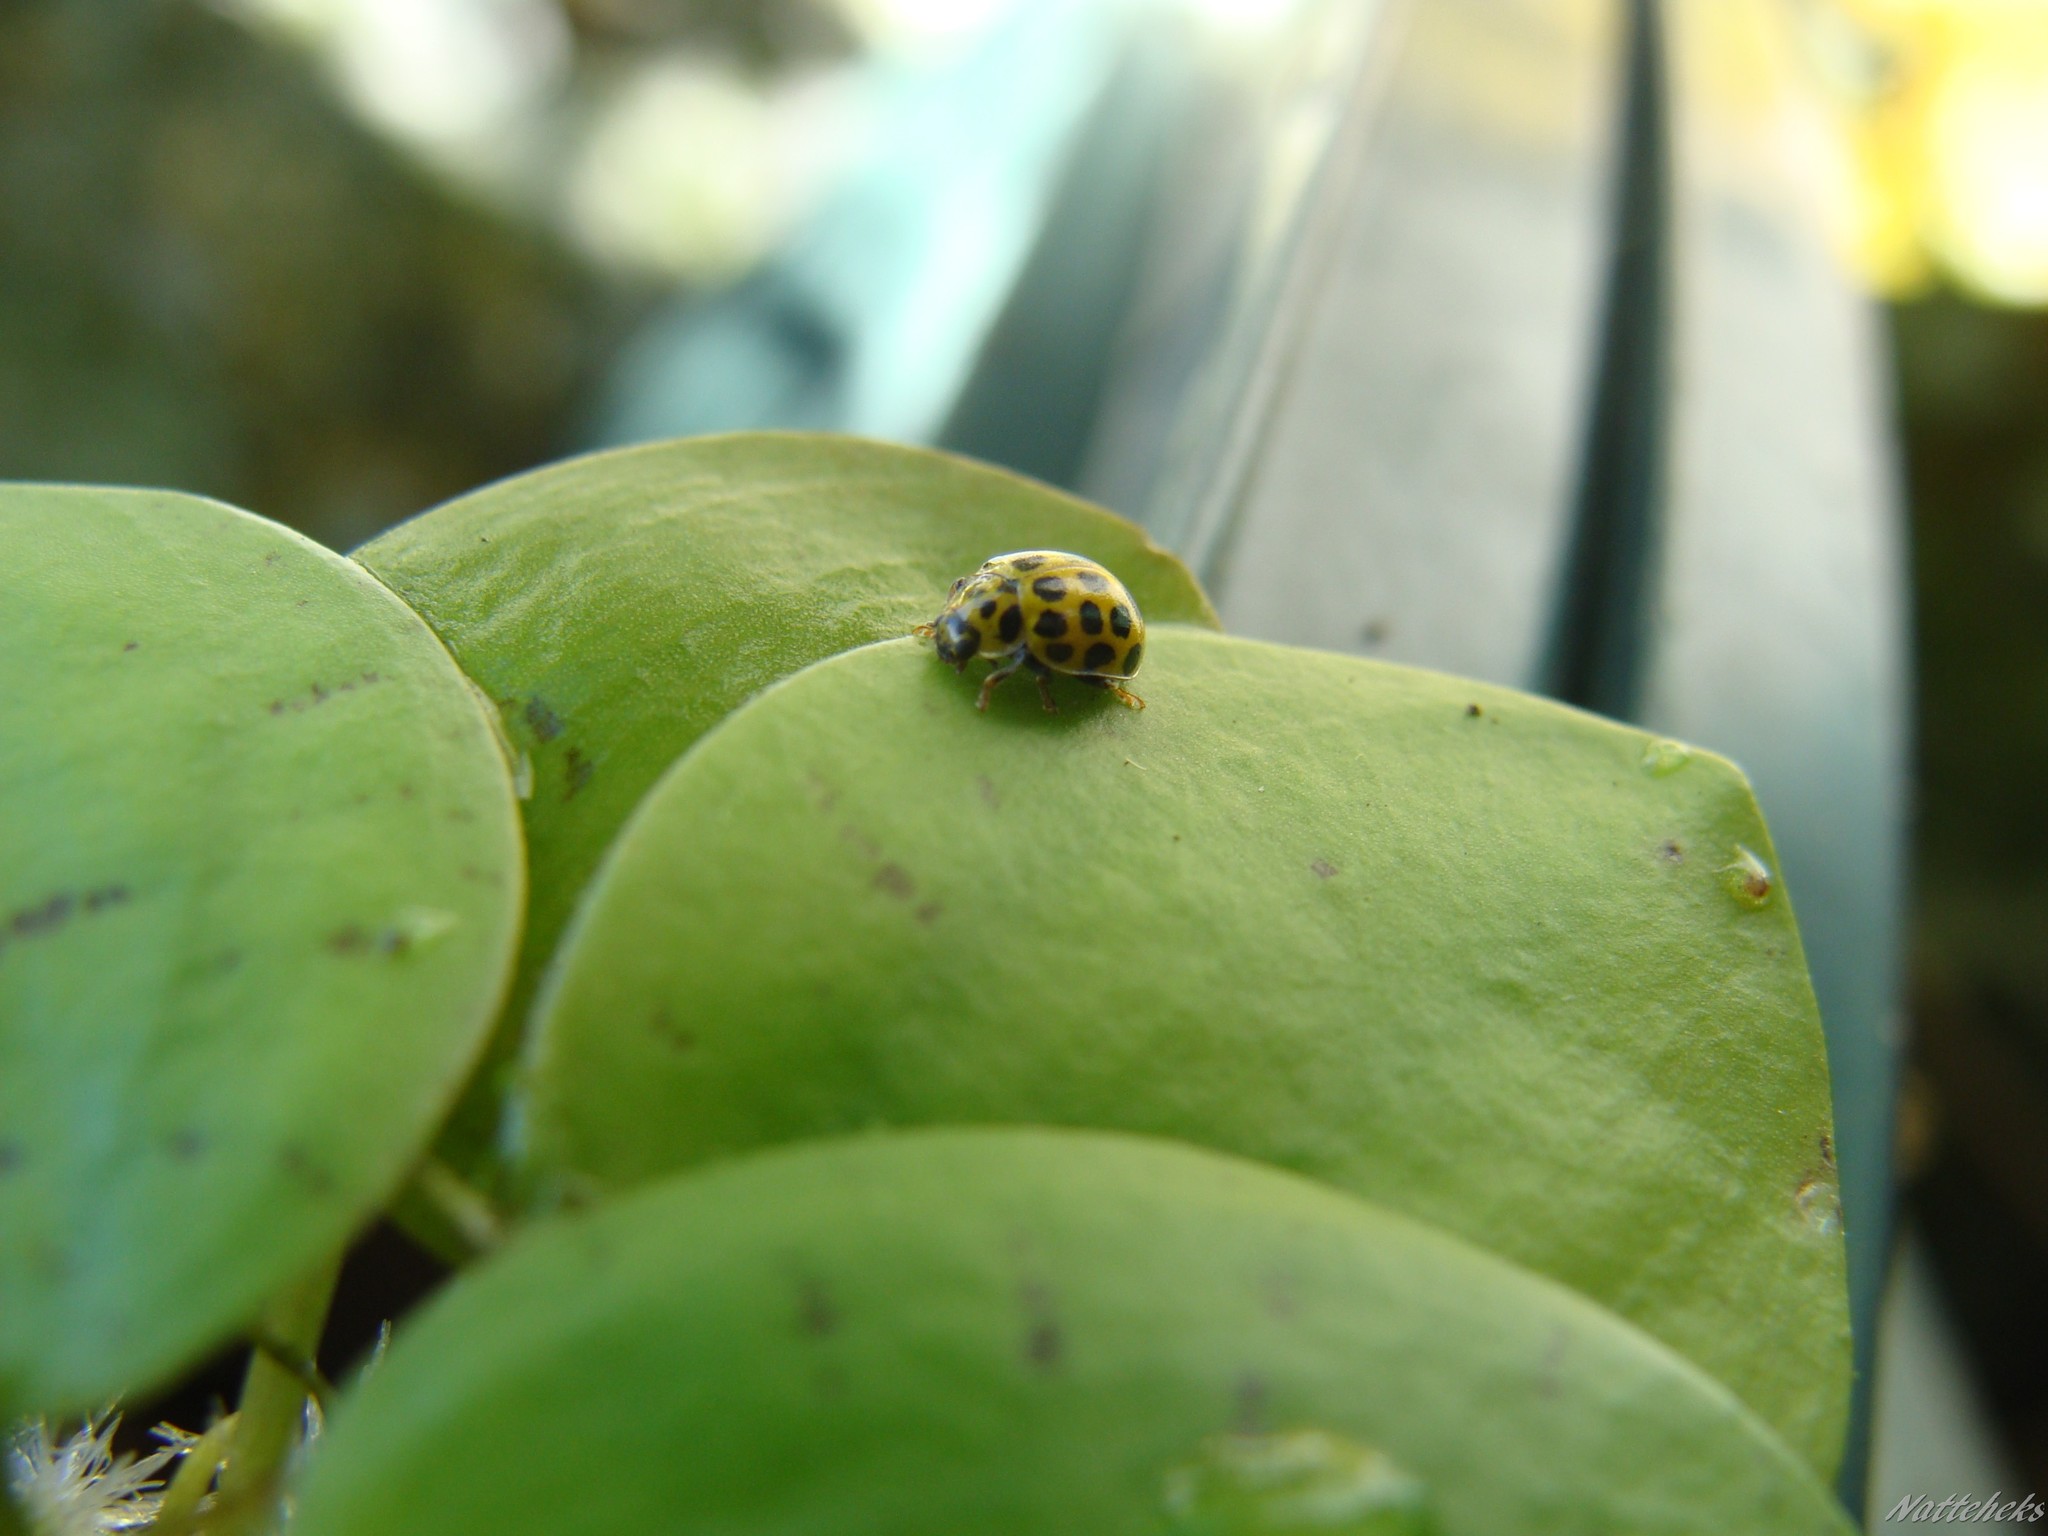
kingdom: Animalia
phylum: Arthropoda
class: Insecta
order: Coleoptera
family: Coccinellidae
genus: Psyllobora
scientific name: Psyllobora vigintiduopunctata
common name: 22-spot ladybird
